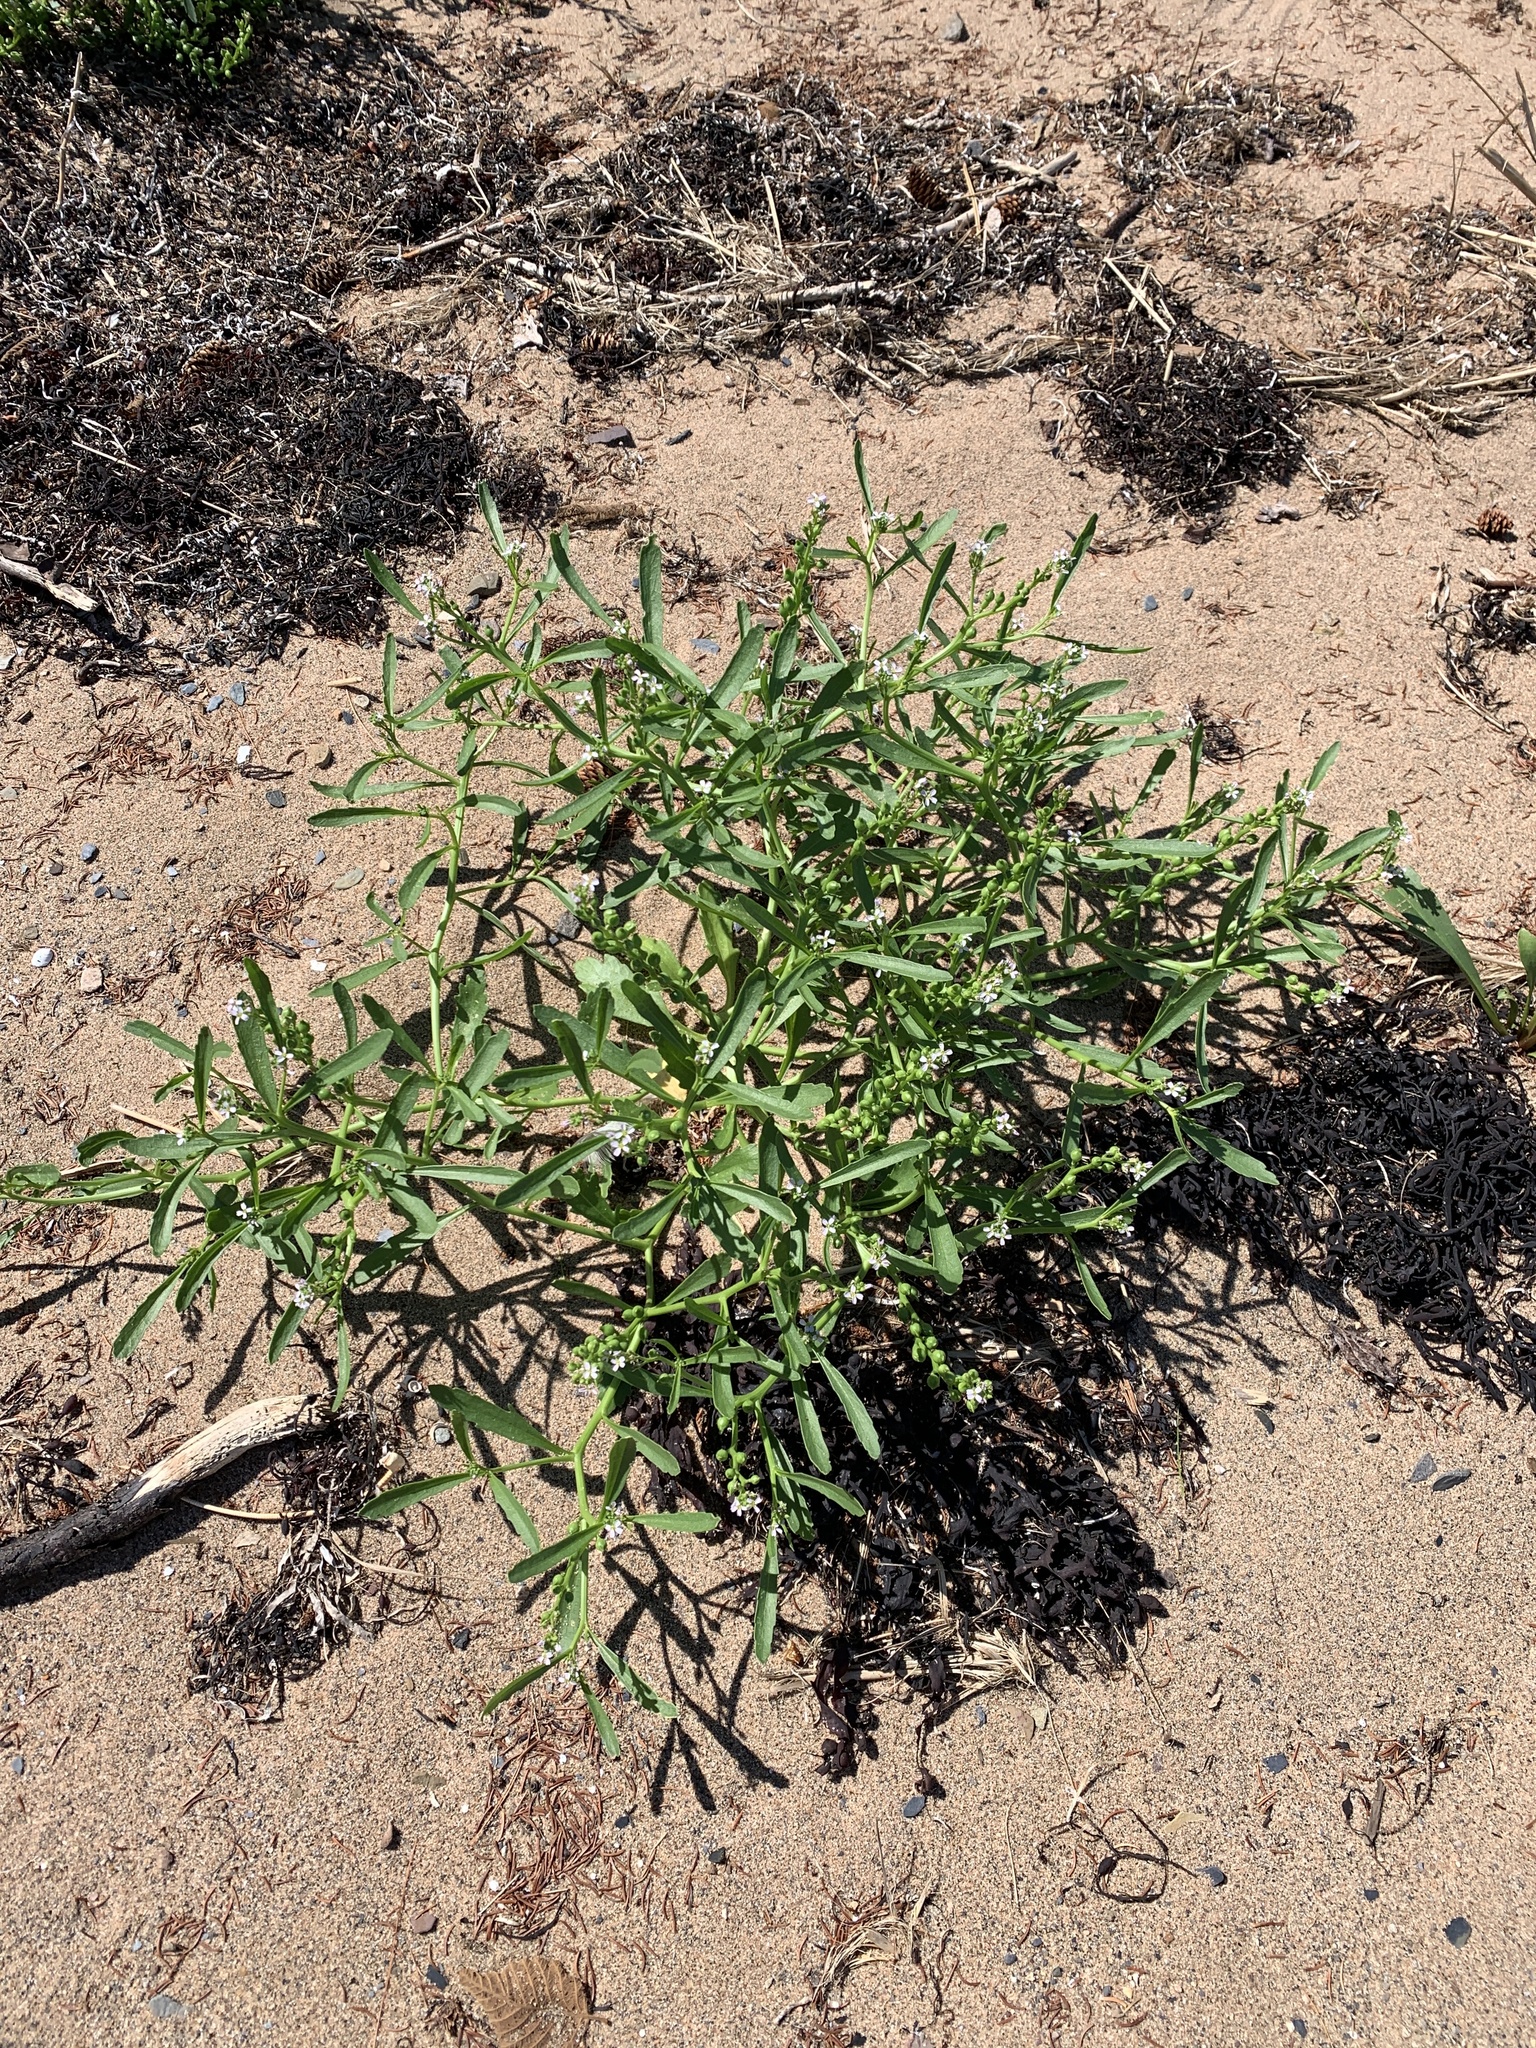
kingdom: Plantae
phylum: Tracheophyta
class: Magnoliopsida
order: Brassicales
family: Brassicaceae
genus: Cakile
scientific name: Cakile edentula
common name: American sea rocket
